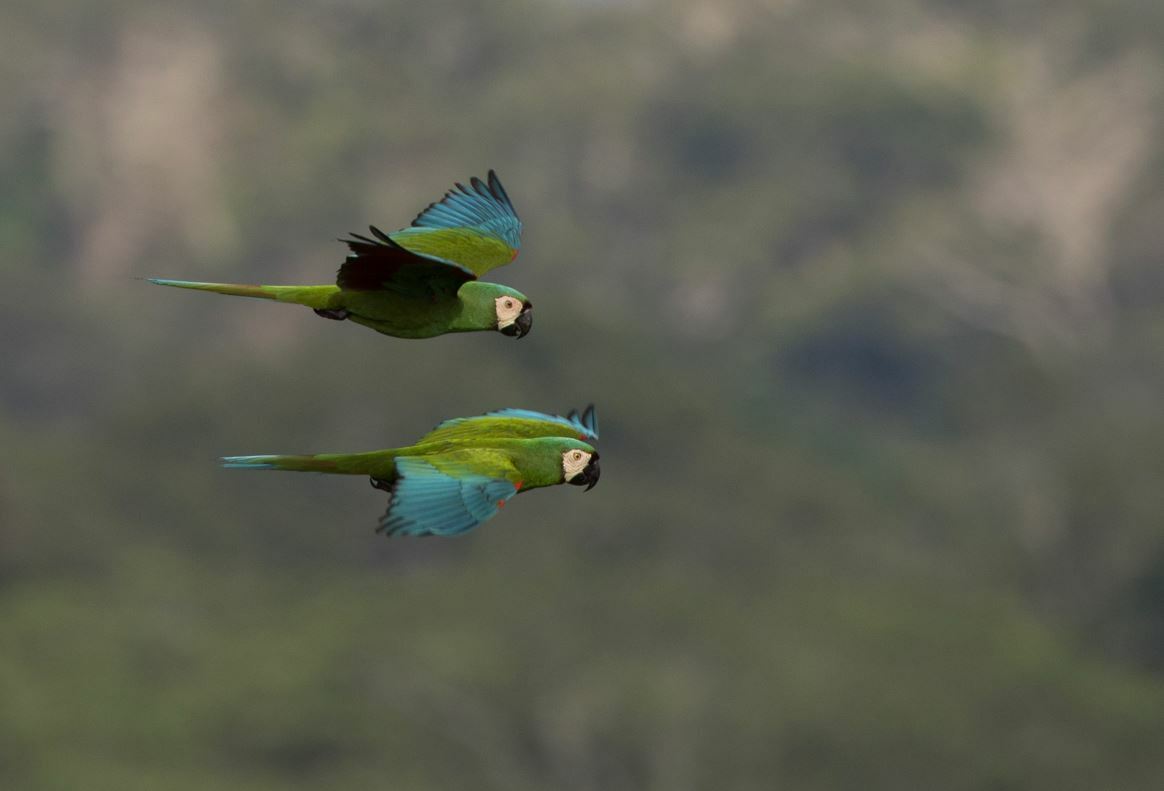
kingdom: Animalia
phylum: Chordata
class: Aves
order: Psittaciformes
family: Psittacidae
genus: Ara
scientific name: Ara severus
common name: Chestnut-fronted macaw
